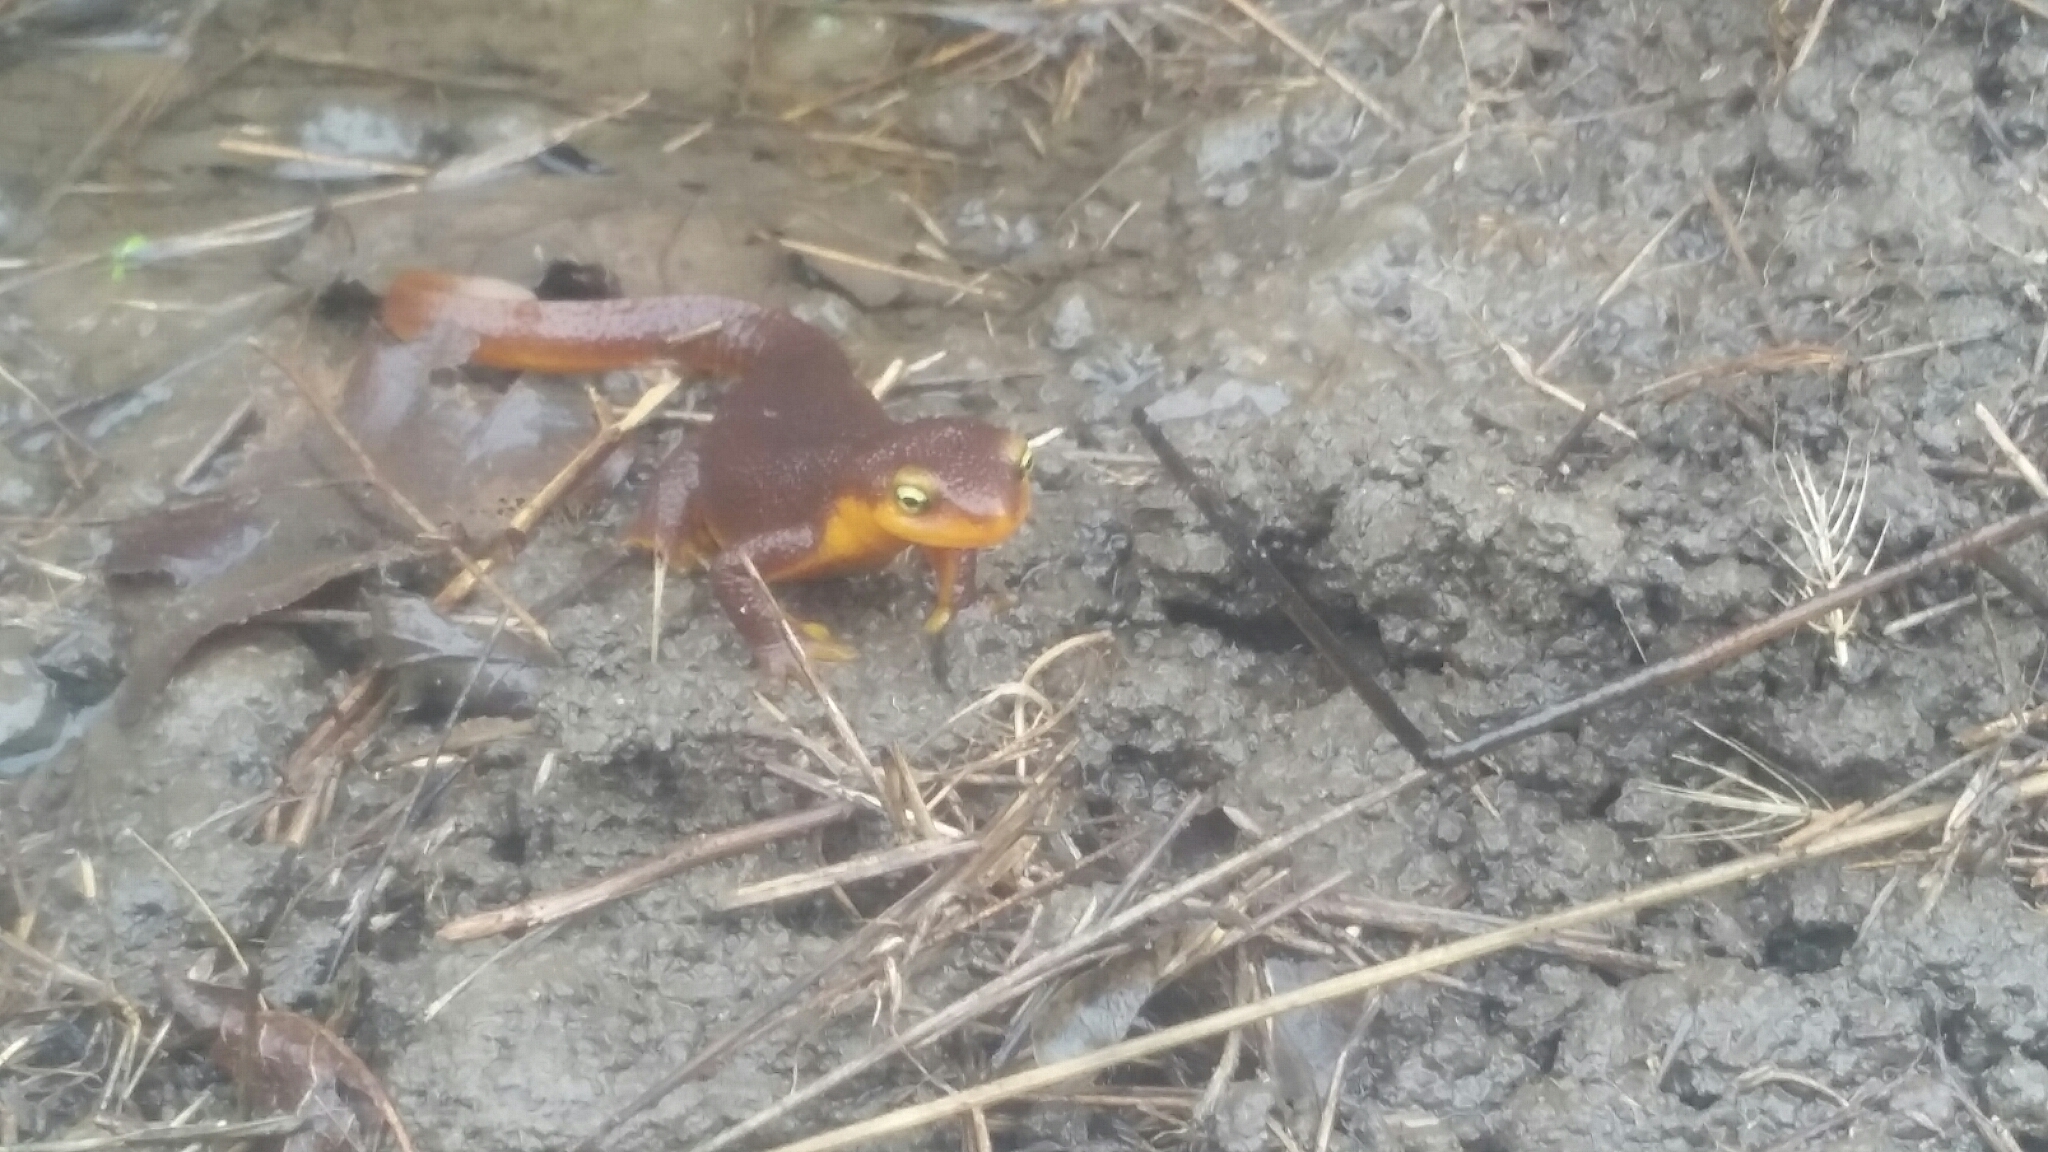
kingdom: Animalia
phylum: Chordata
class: Amphibia
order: Caudata
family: Salamandridae
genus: Taricha
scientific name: Taricha torosa
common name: California newt
